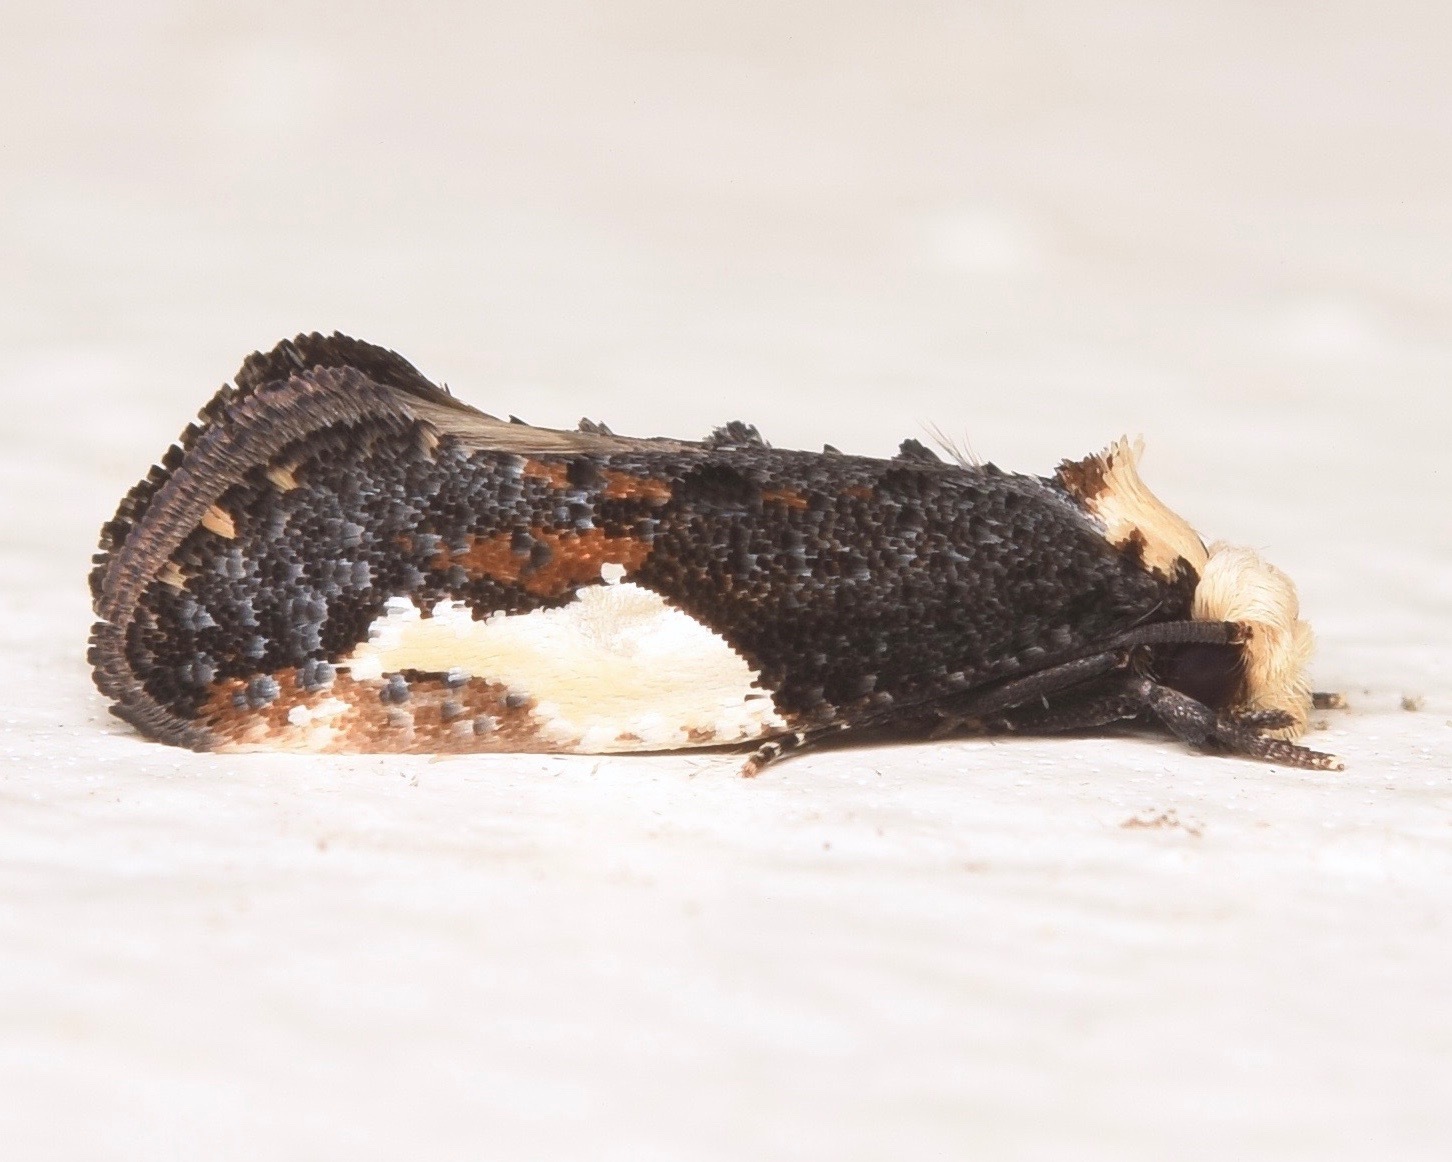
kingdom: Animalia
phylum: Arthropoda
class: Insecta
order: Lepidoptera
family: Tineidae
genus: Monopis
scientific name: Monopis longella
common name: Pavlovski's monopis moth
